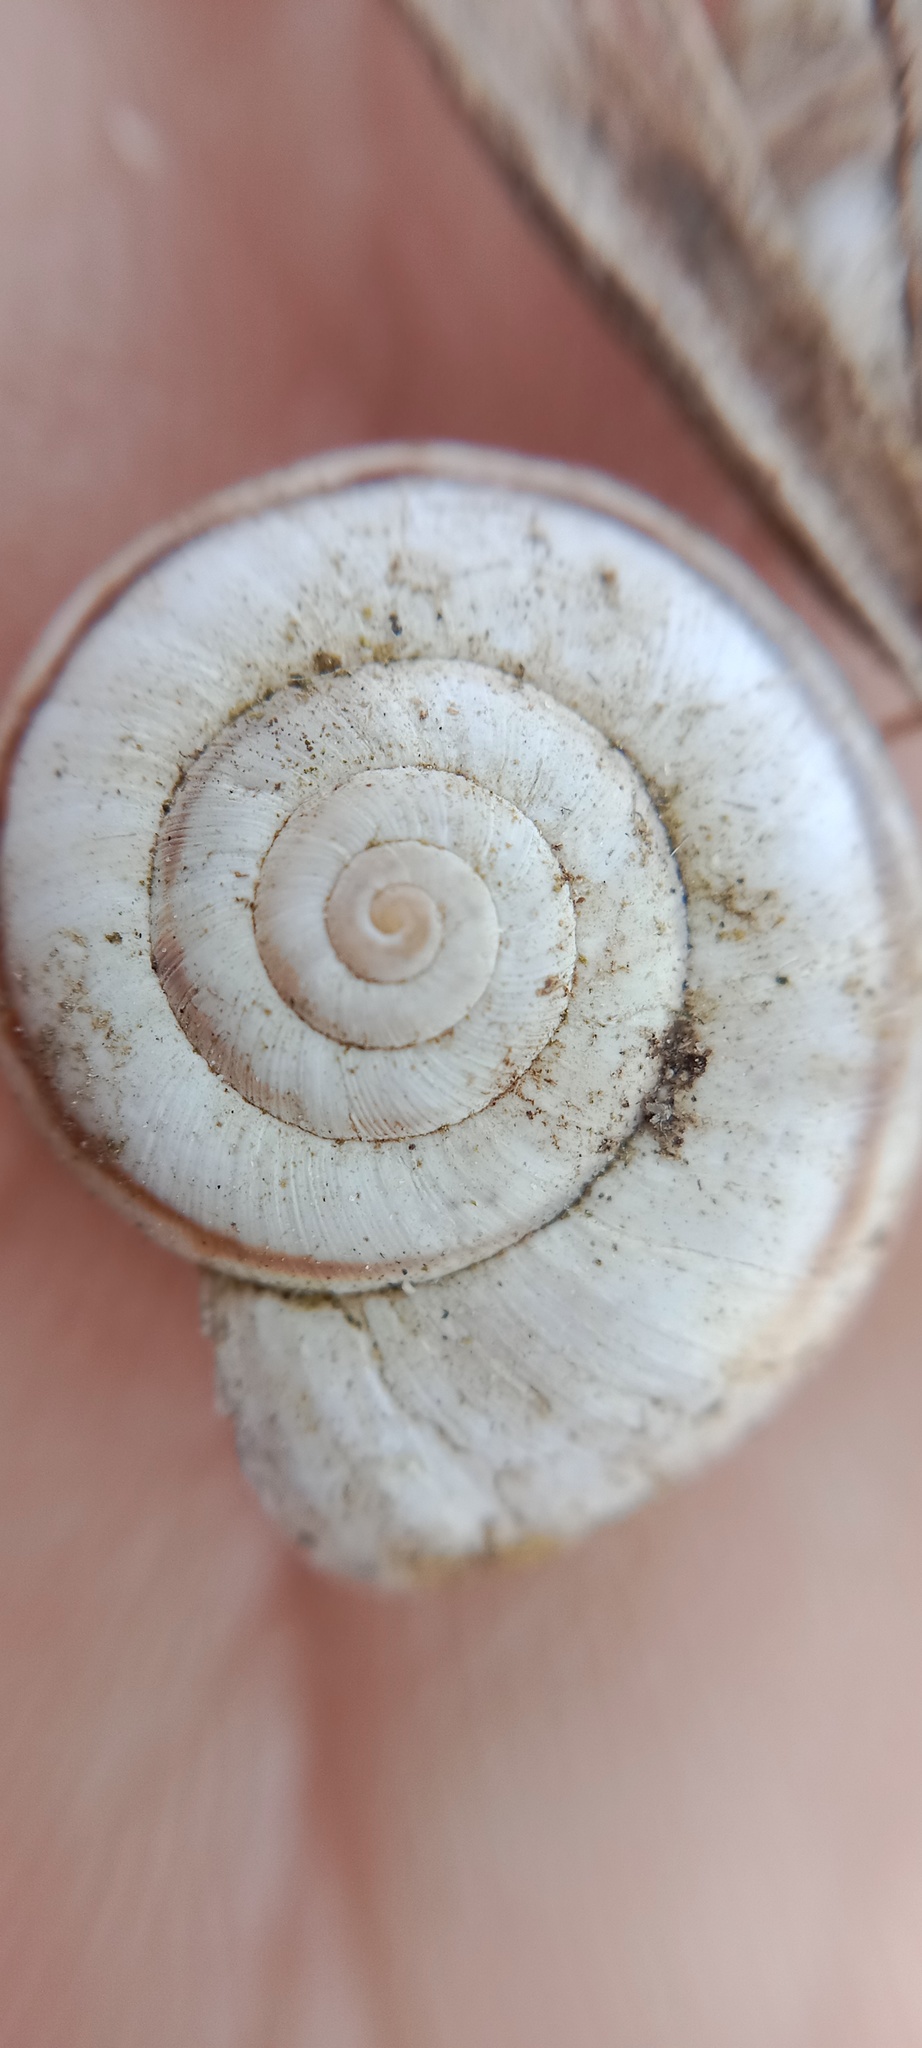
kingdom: Animalia
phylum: Mollusca
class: Gastropoda
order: Stylommatophora
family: Geomitridae
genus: Xerolenta
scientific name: Xerolenta obvia
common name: White heath snail
